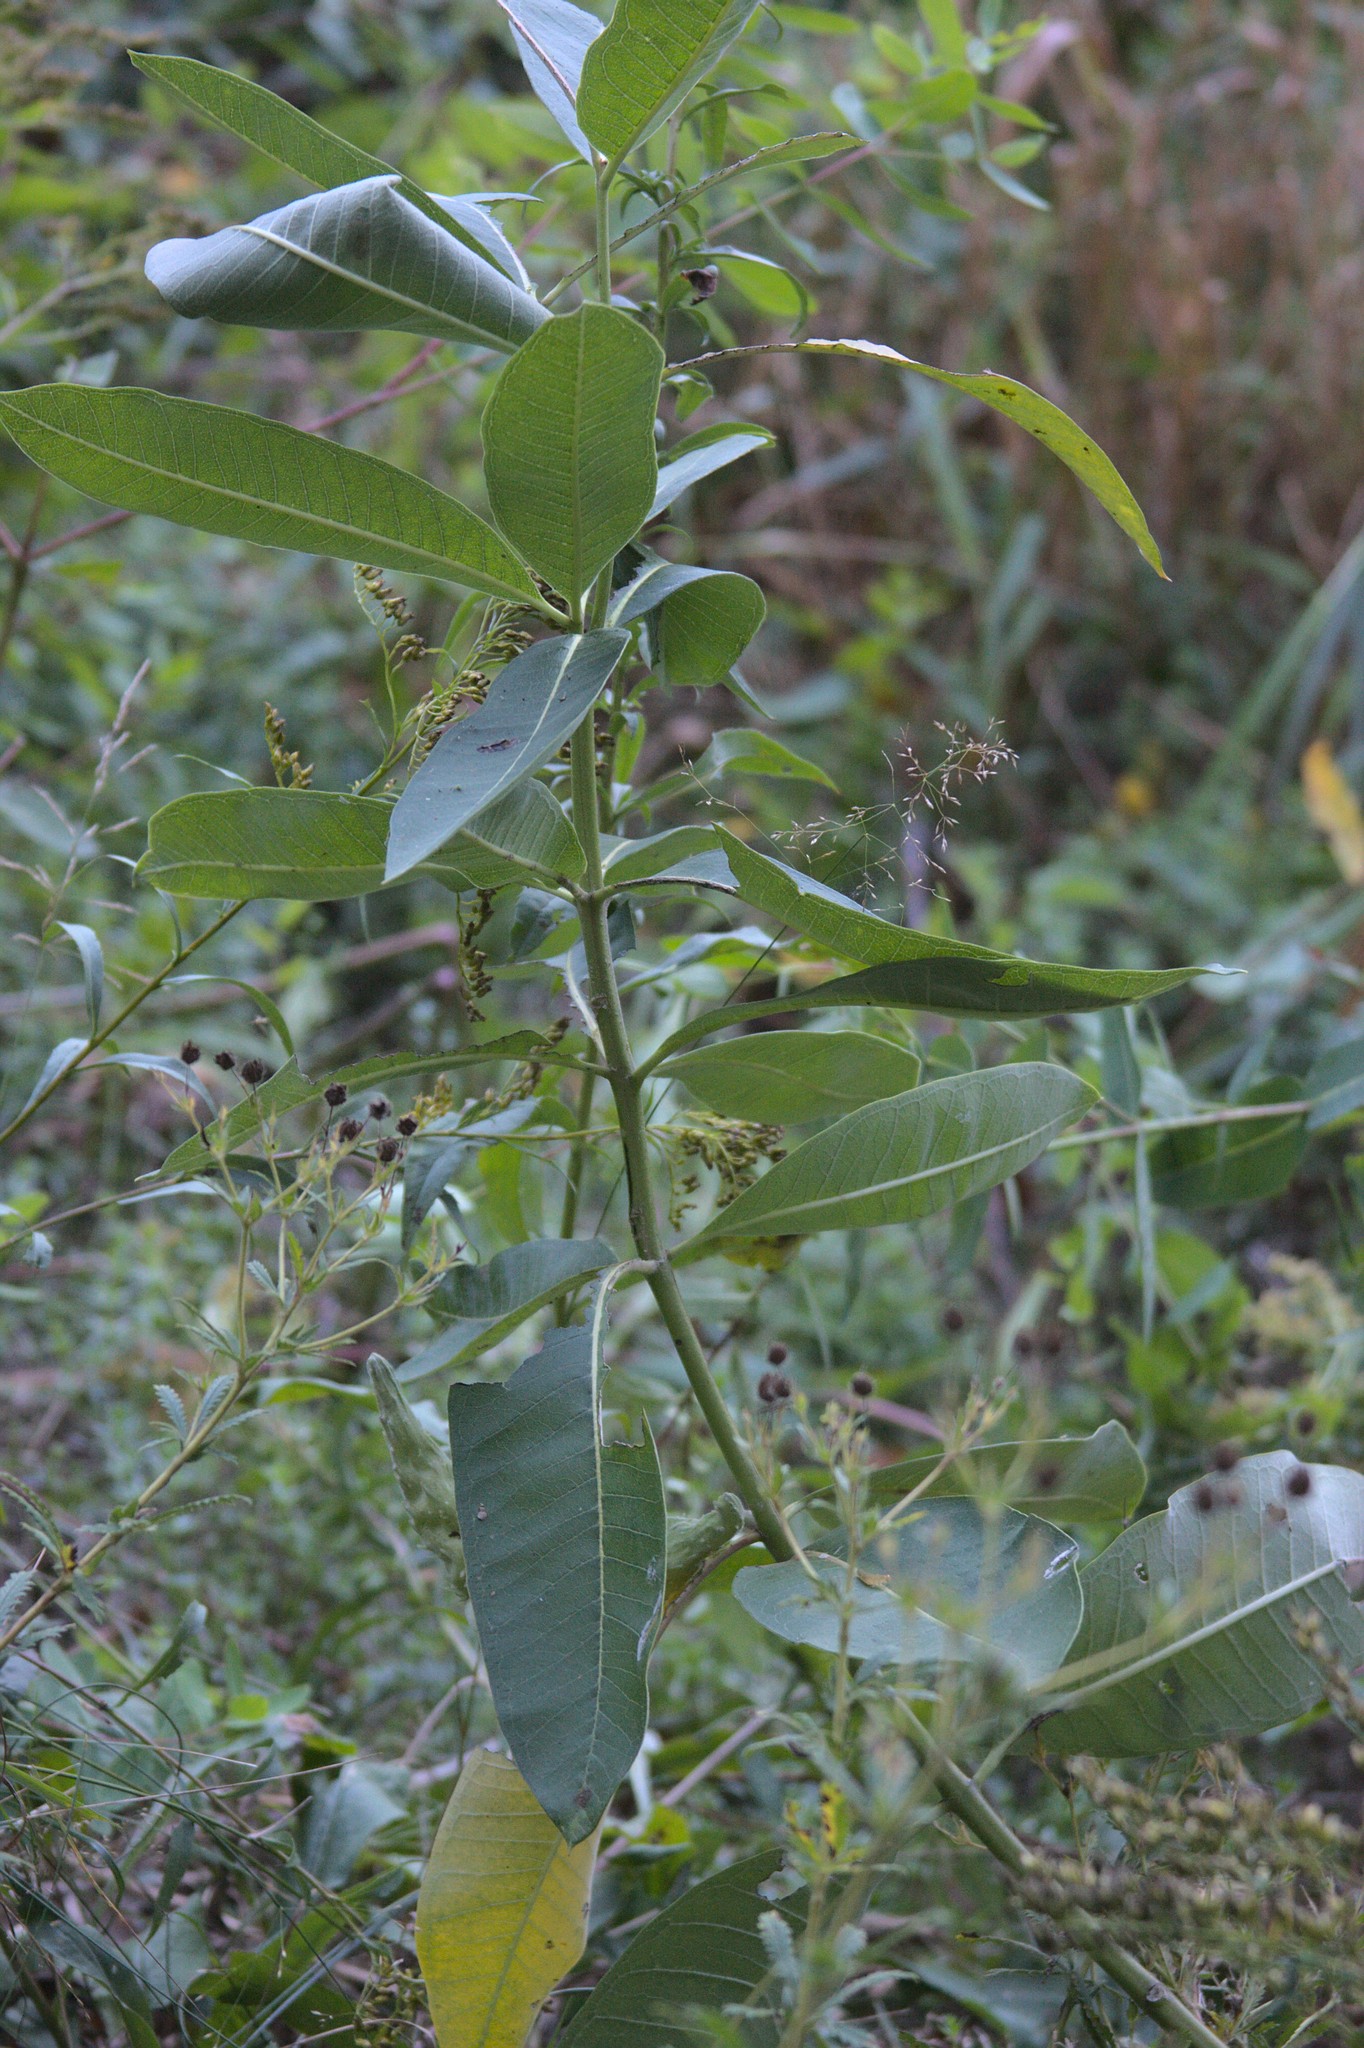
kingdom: Plantae
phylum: Tracheophyta
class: Magnoliopsida
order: Gentianales
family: Apocynaceae
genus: Asclepias
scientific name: Asclepias syriaca
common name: Common milkweed
